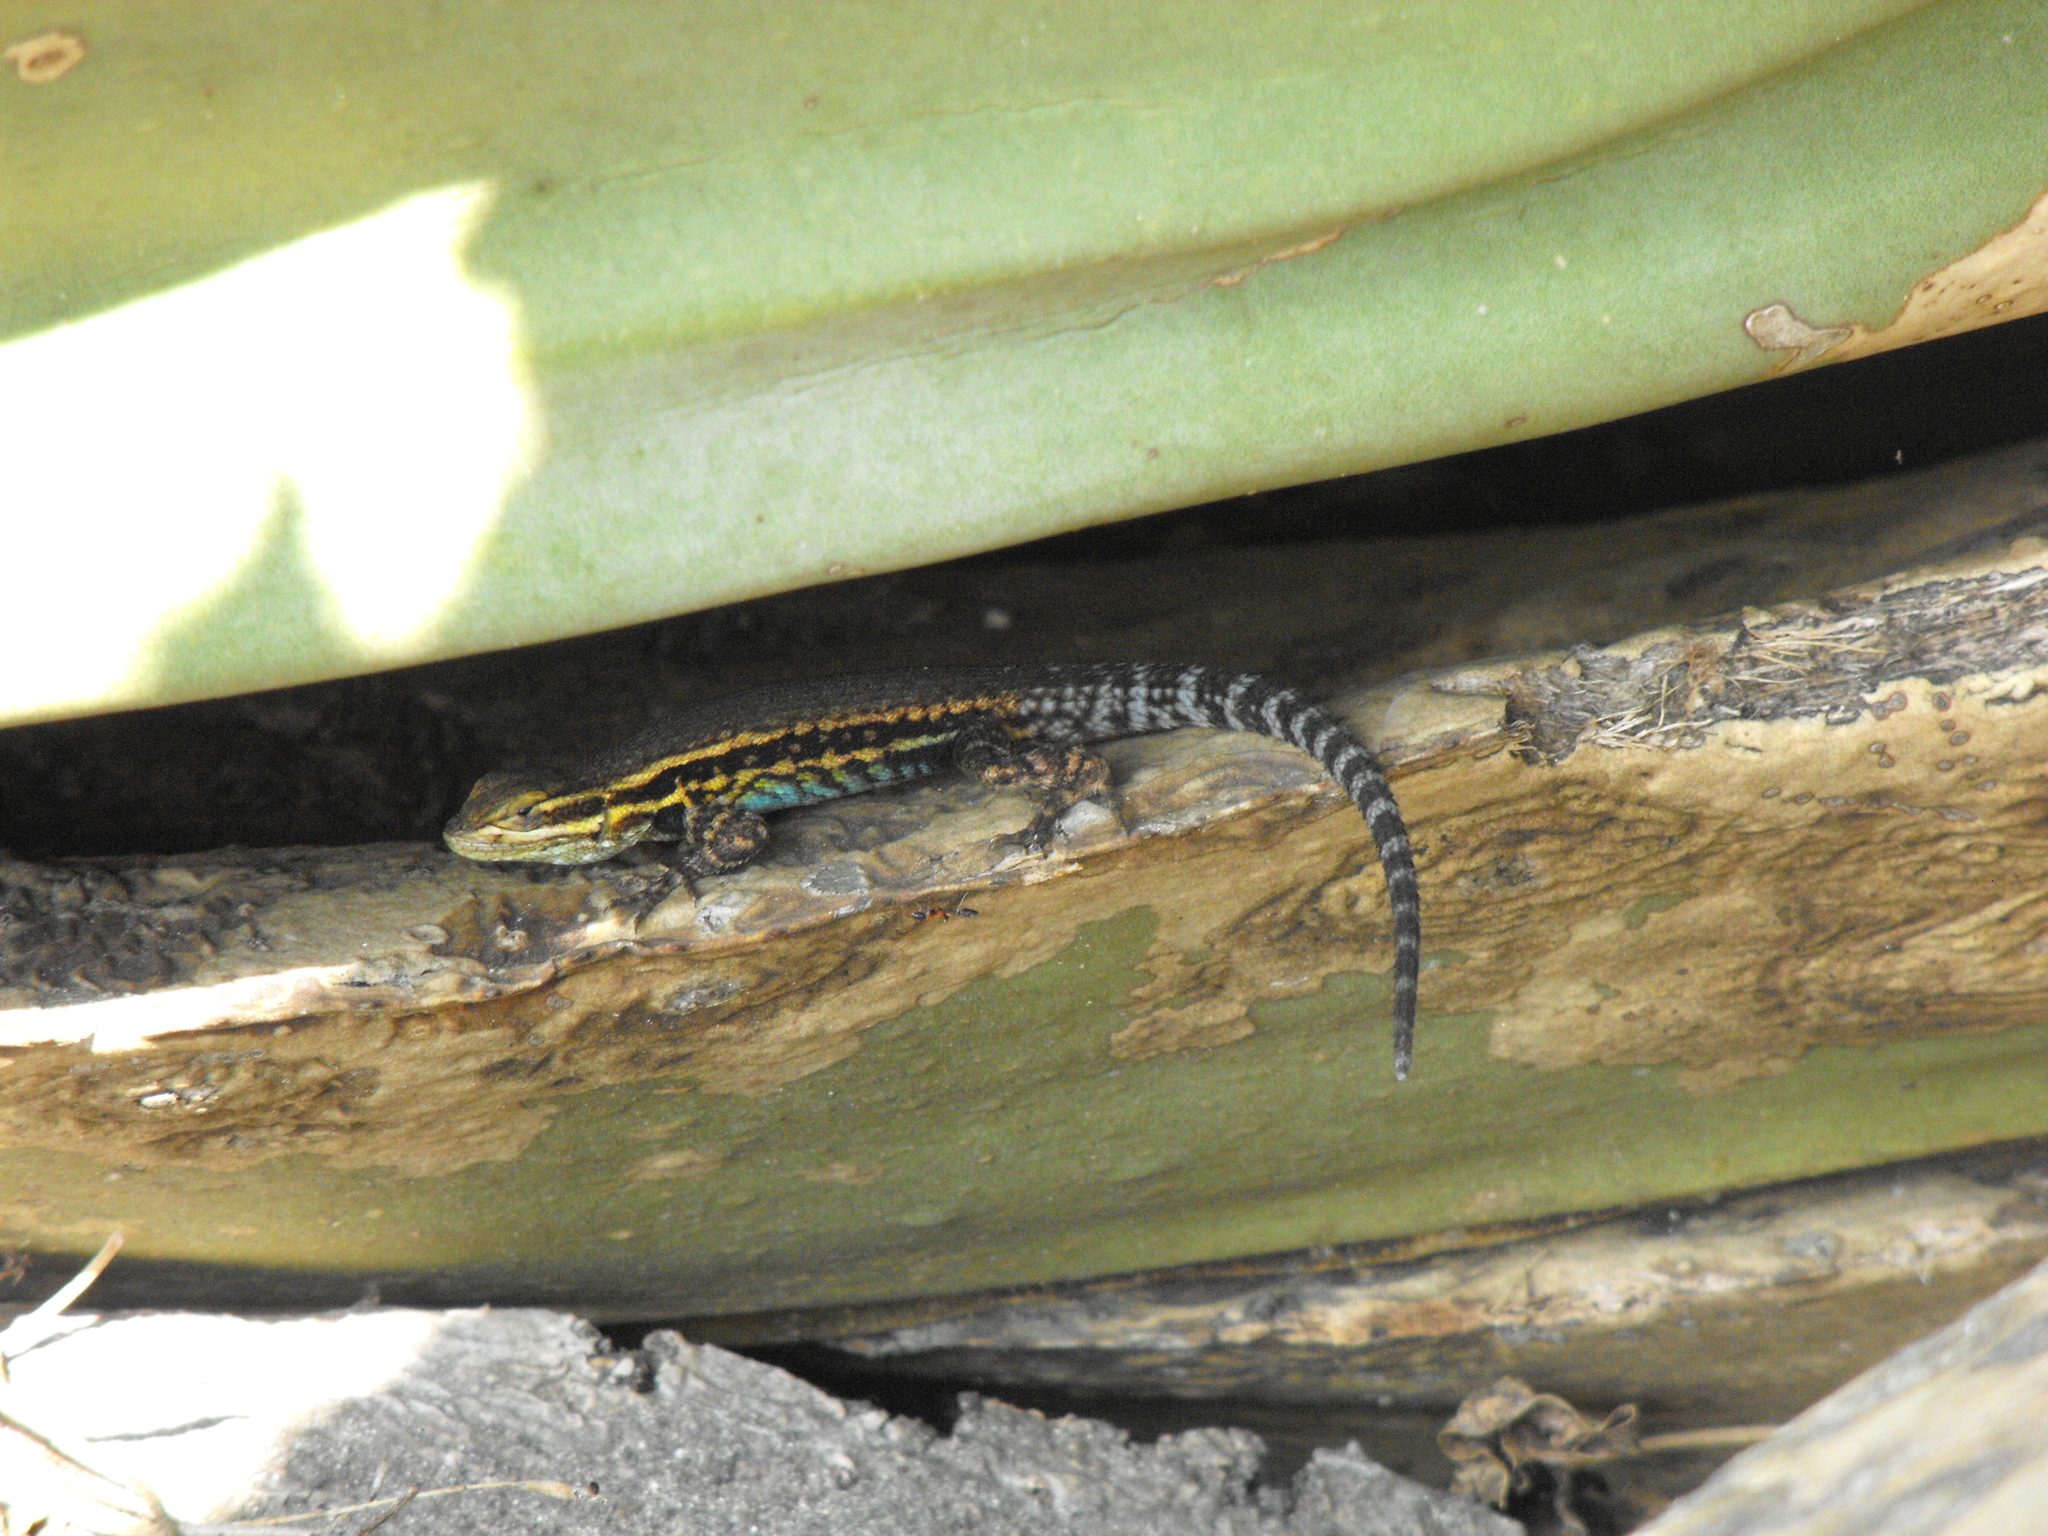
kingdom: Animalia
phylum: Chordata
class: Squamata
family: Phrynosomatidae
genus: Sceloporus
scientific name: Sceloporus megalepidurus
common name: Cursorial spiny lizard
